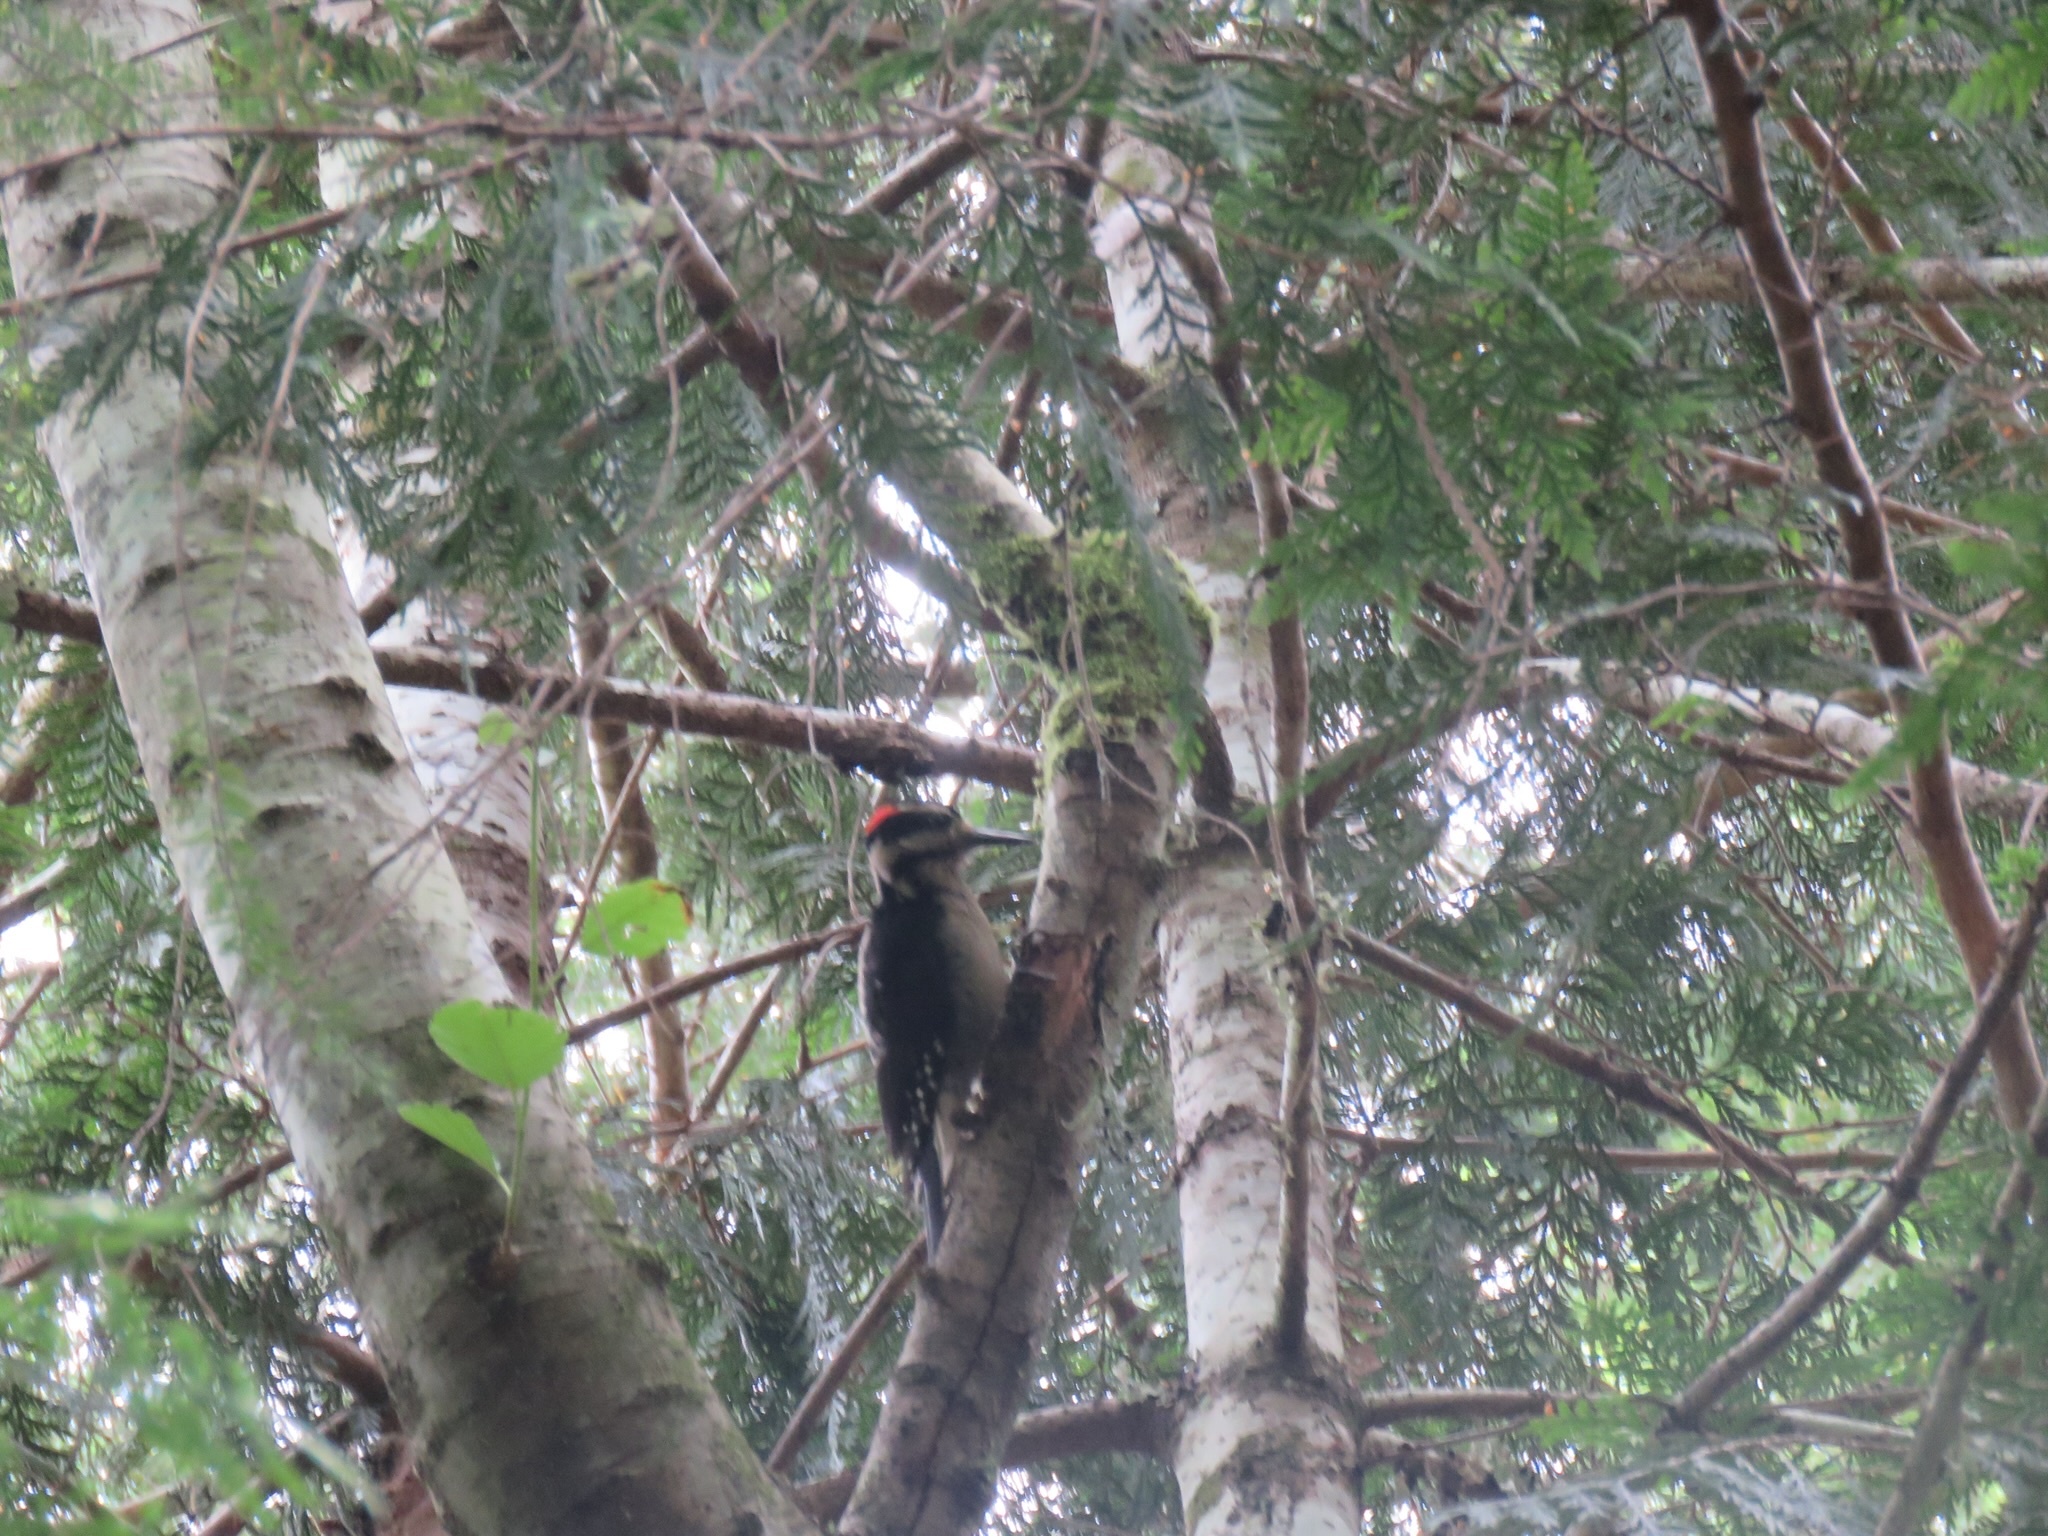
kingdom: Animalia
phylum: Chordata
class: Aves
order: Piciformes
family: Picidae
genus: Leuconotopicus
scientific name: Leuconotopicus villosus
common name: Hairy woodpecker
